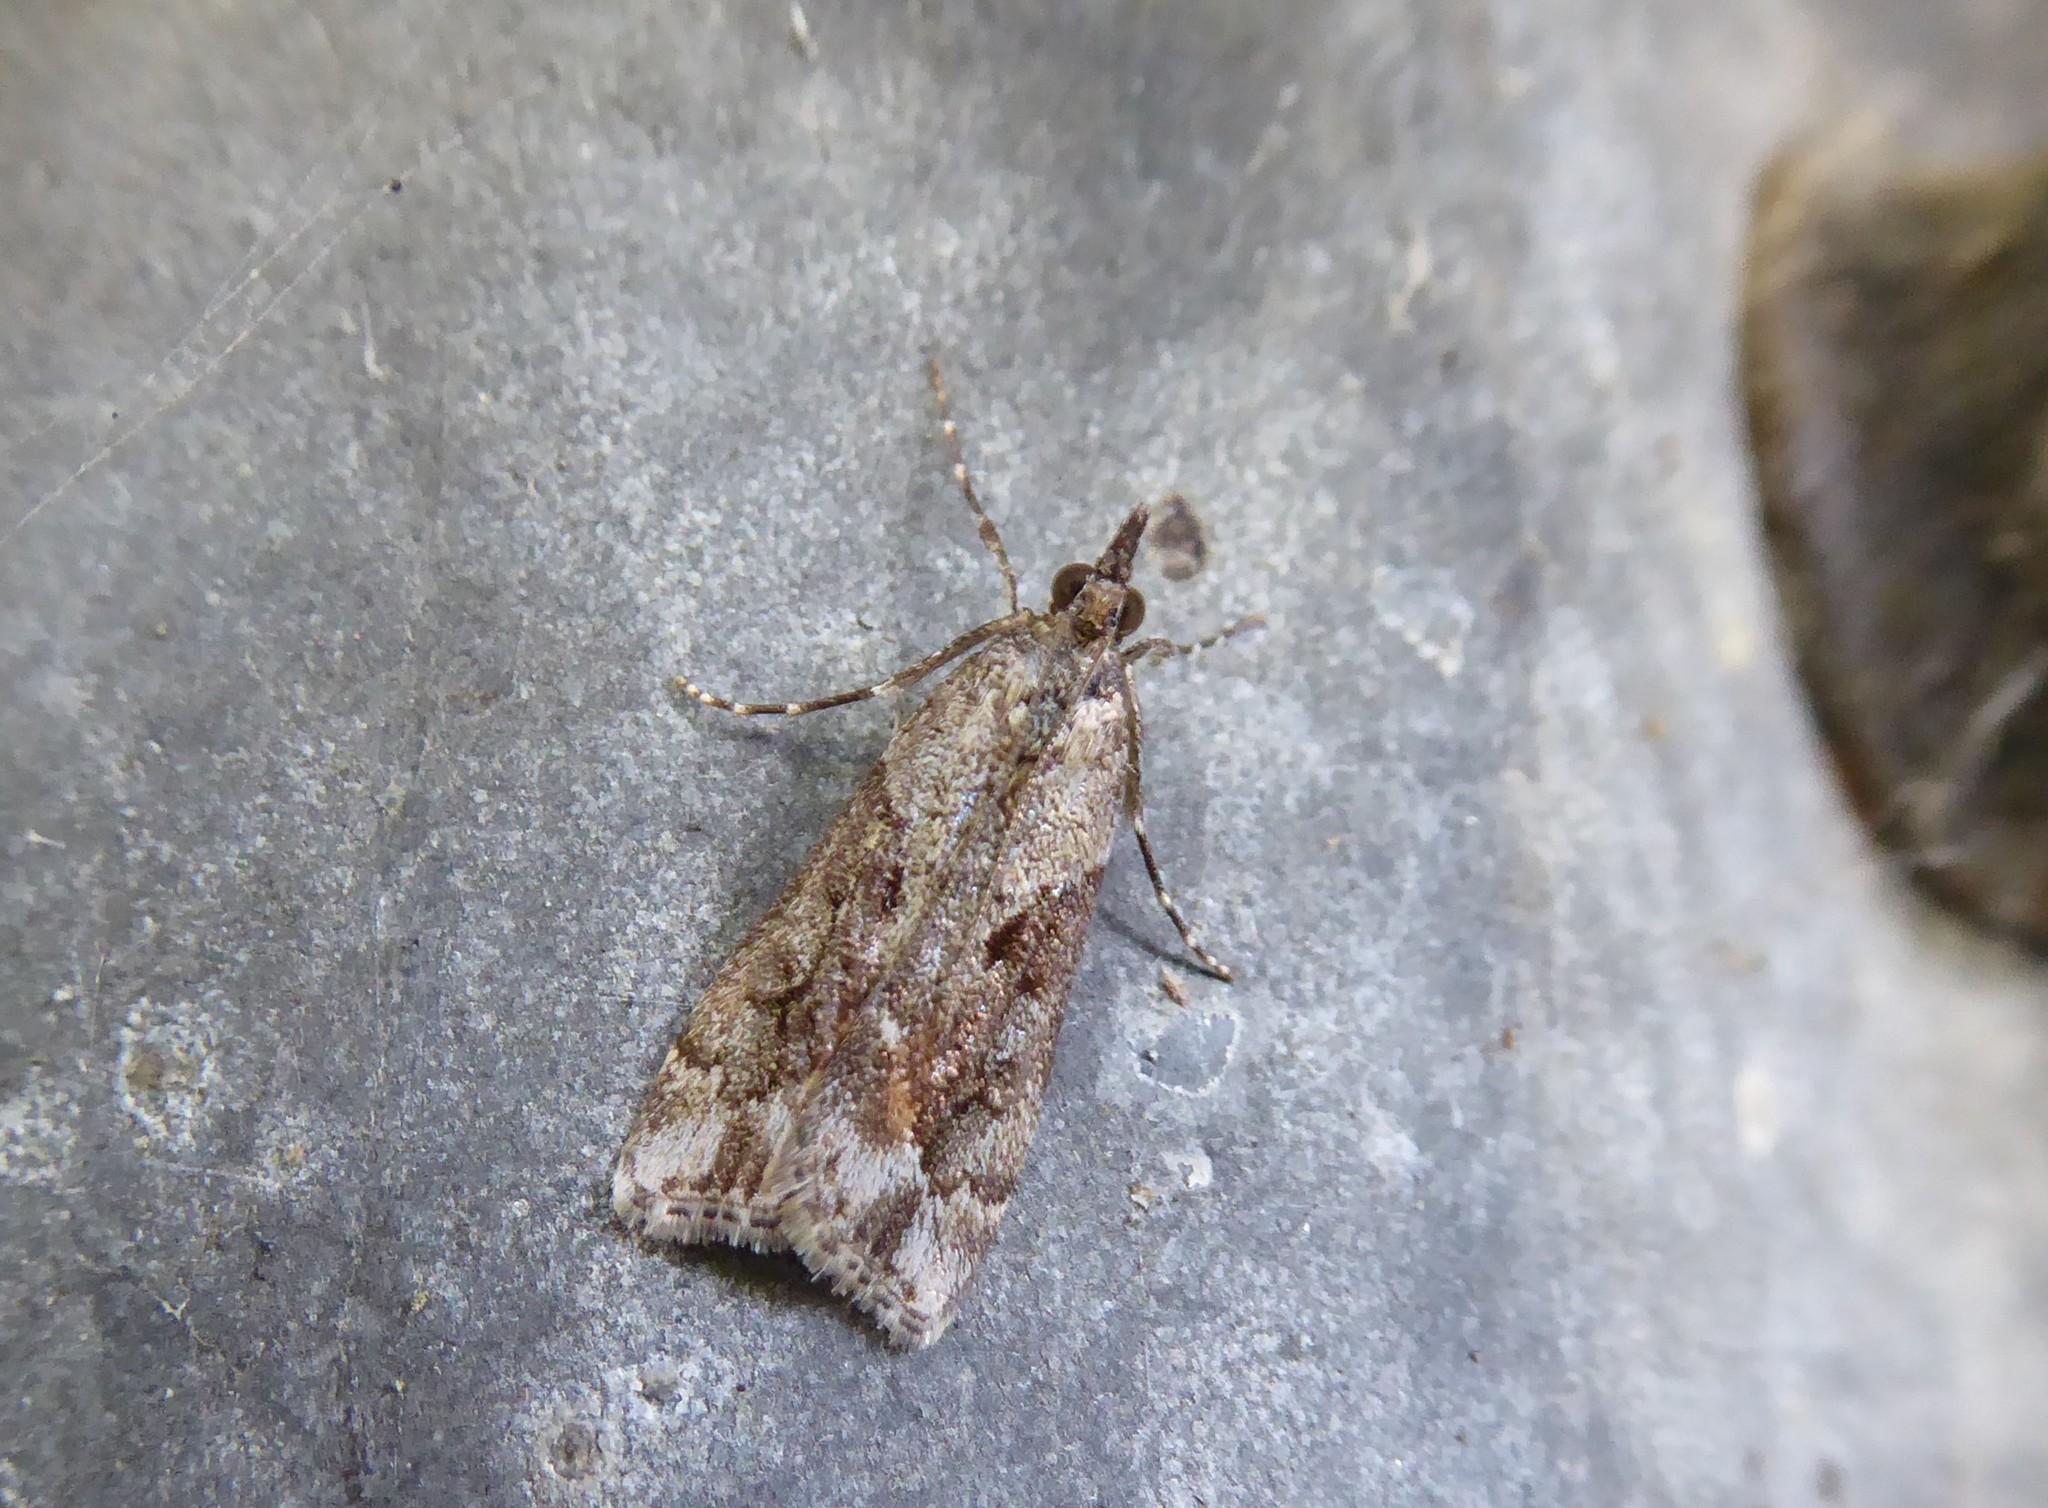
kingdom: Animalia
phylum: Arthropoda
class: Insecta
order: Lepidoptera
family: Crambidae
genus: Eudonia
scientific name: Eudonia submarginalis
